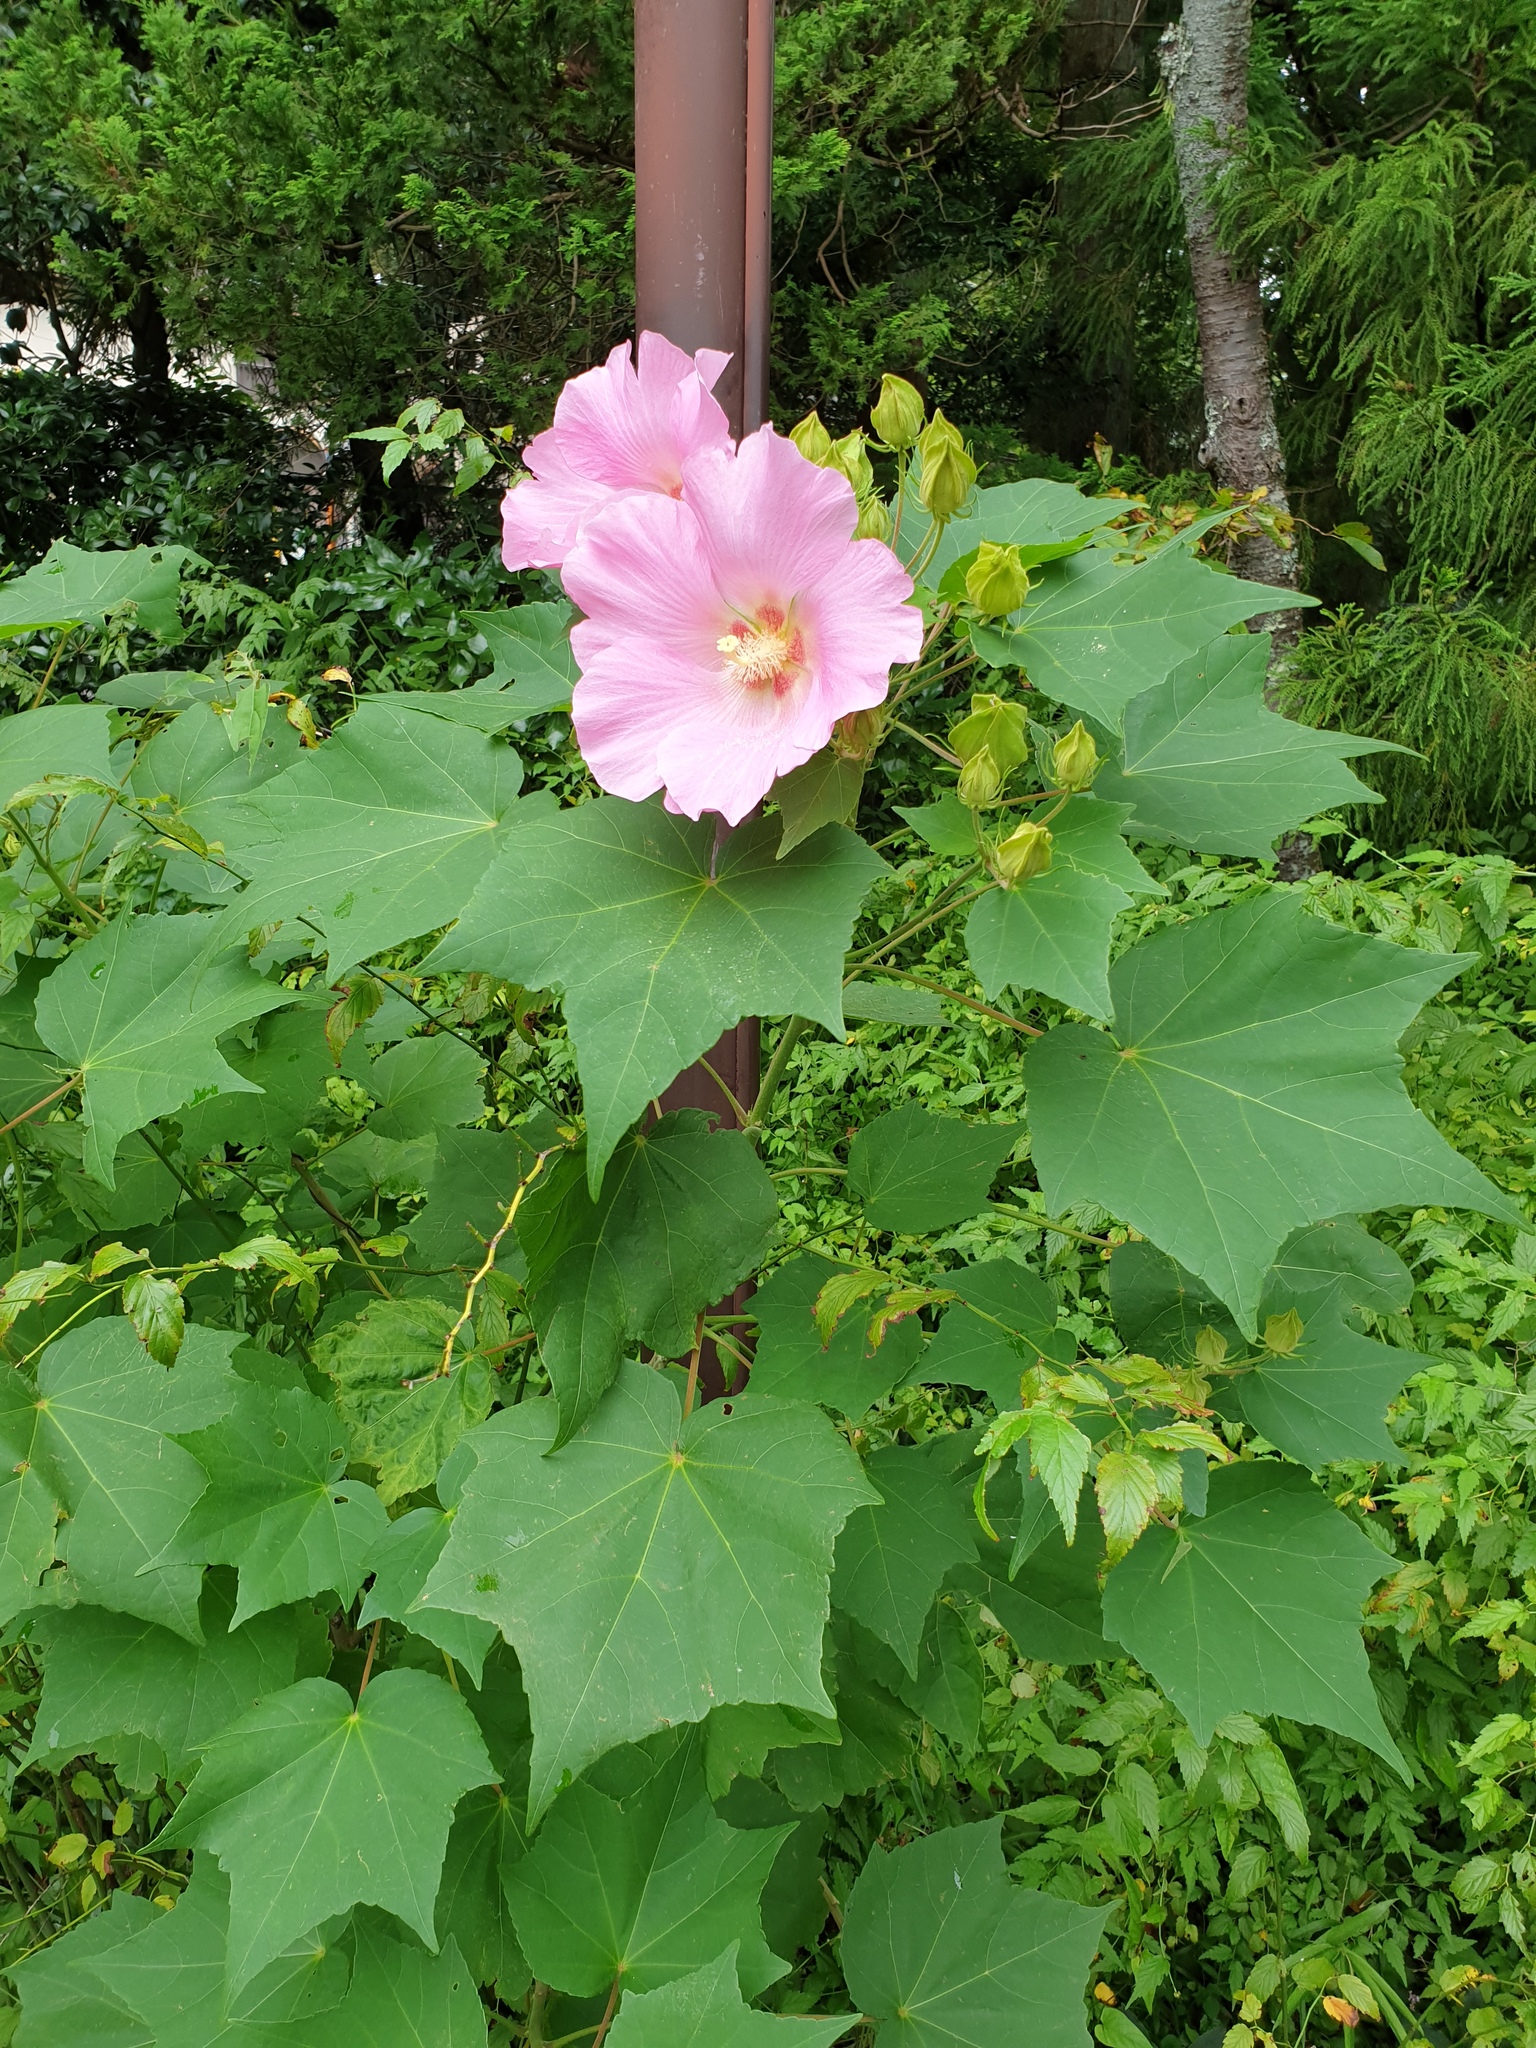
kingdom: Plantae
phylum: Tracheophyta
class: Magnoliopsida
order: Malvales
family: Malvaceae
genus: Hibiscus
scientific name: Hibiscus mutabilis
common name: Dixie rosemallow
